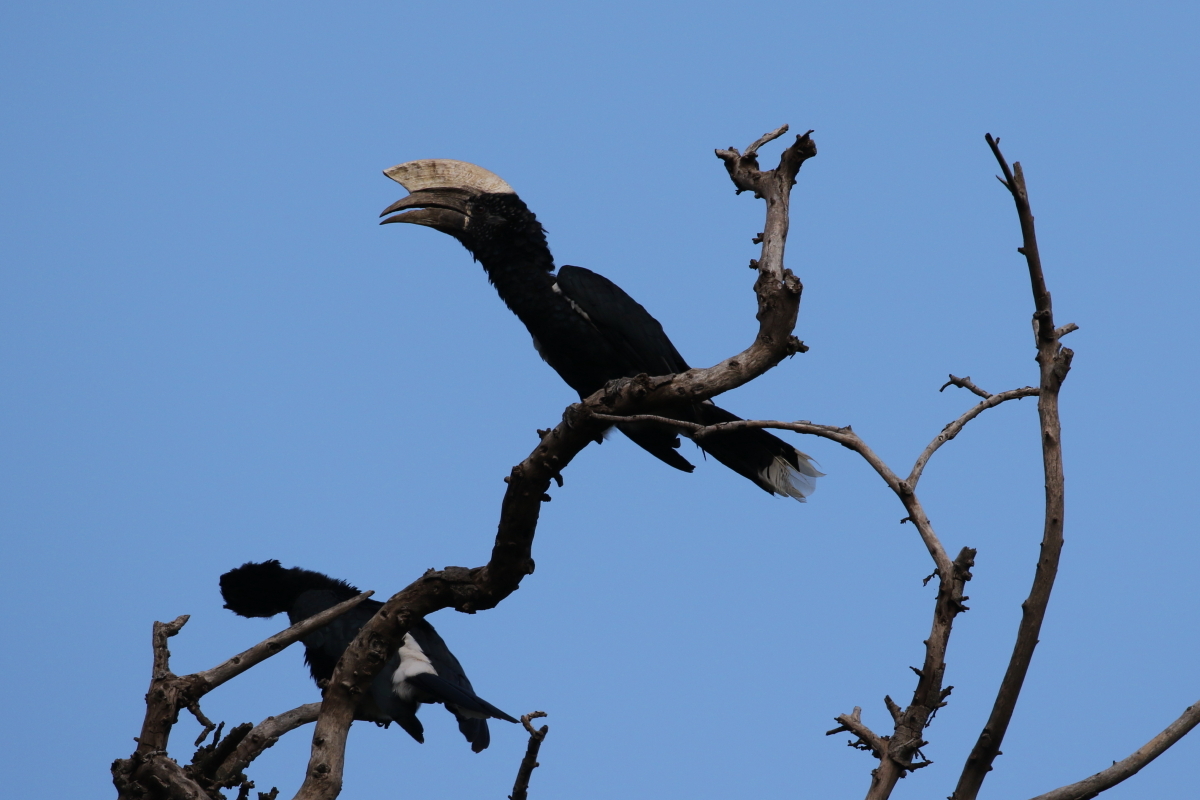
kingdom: Animalia
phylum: Chordata
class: Aves
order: Bucerotiformes
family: Bucerotidae
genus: Bycanistes
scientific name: Bycanistes brevis
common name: Silvery-cheeked hornbill
